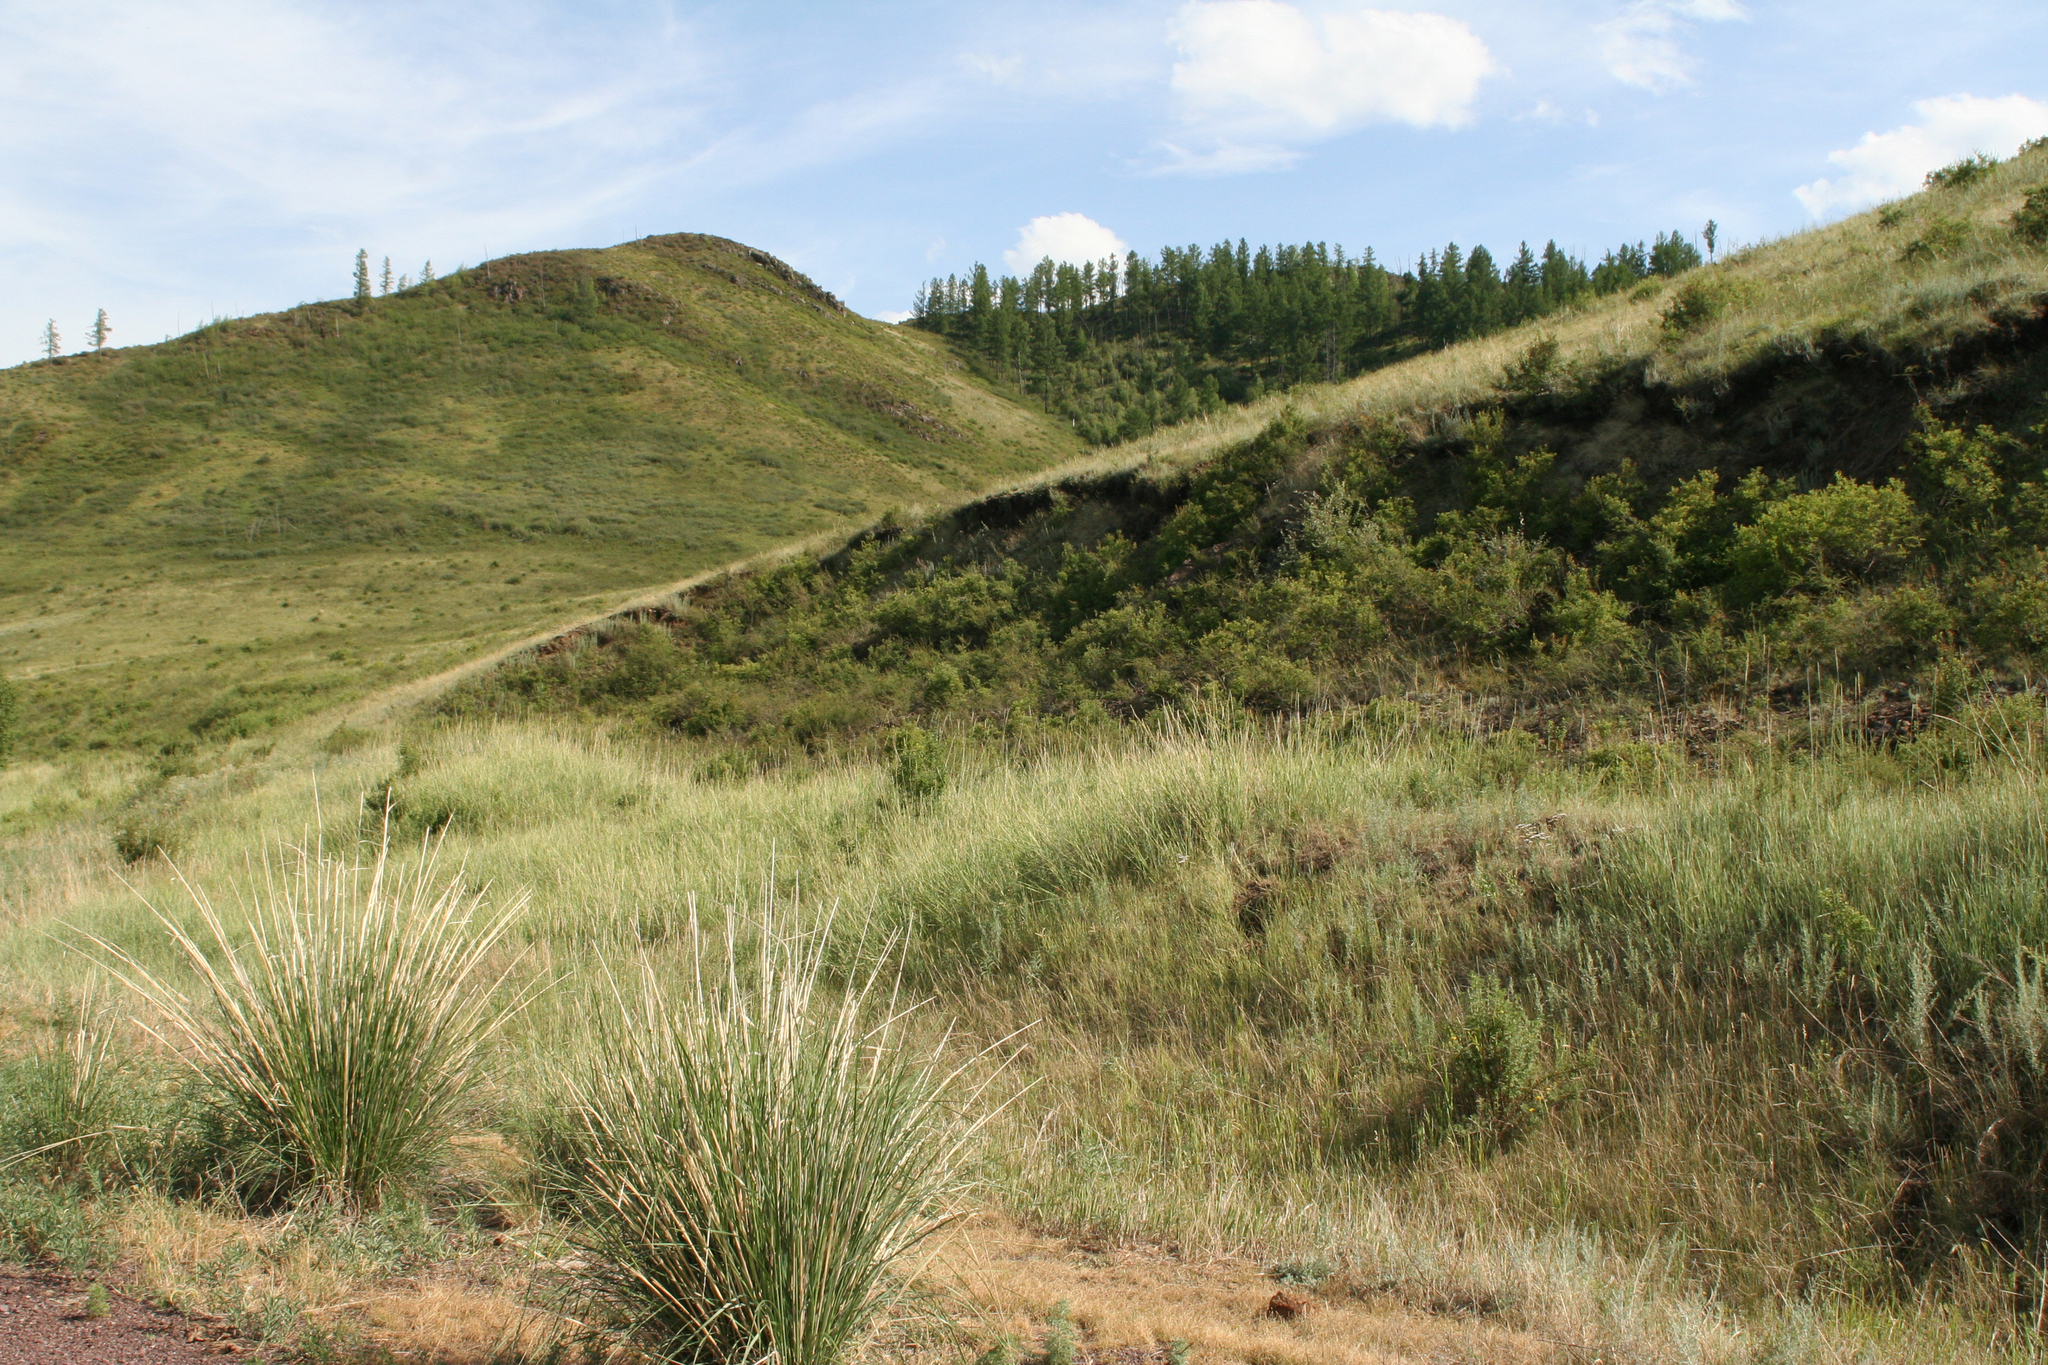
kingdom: Plantae
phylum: Tracheophyta
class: Liliopsida
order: Poales
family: Poaceae
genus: Neotrinia
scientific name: Neotrinia splendens
